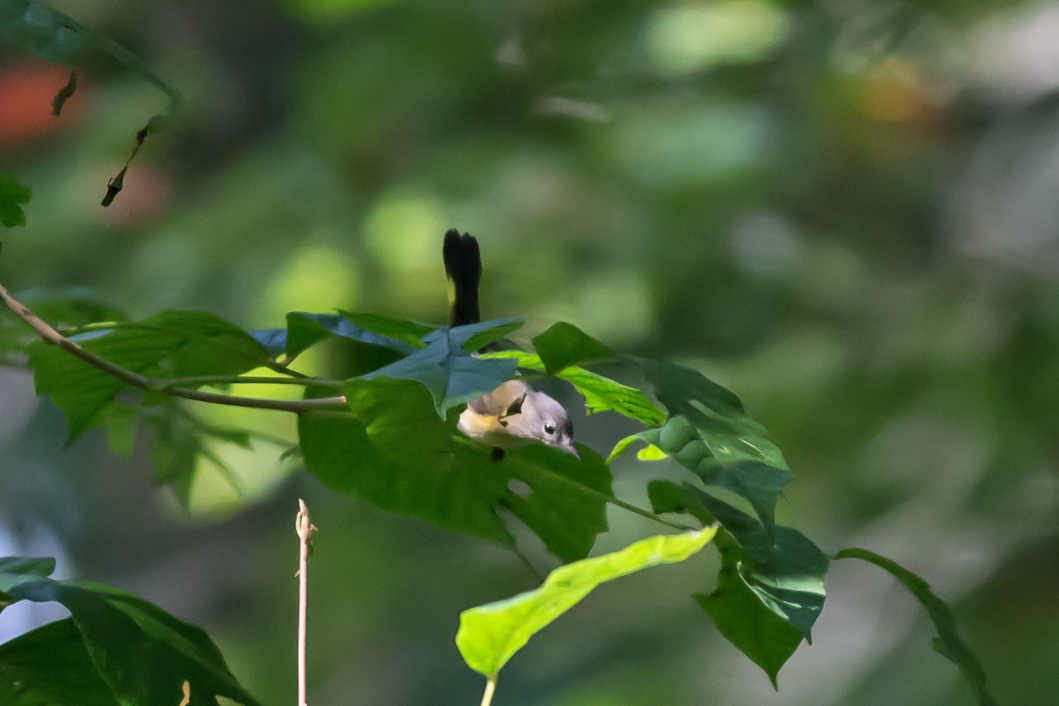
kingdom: Animalia
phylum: Chordata
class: Aves
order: Passeriformes
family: Parulidae
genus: Setophaga
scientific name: Setophaga ruticilla
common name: American redstart
